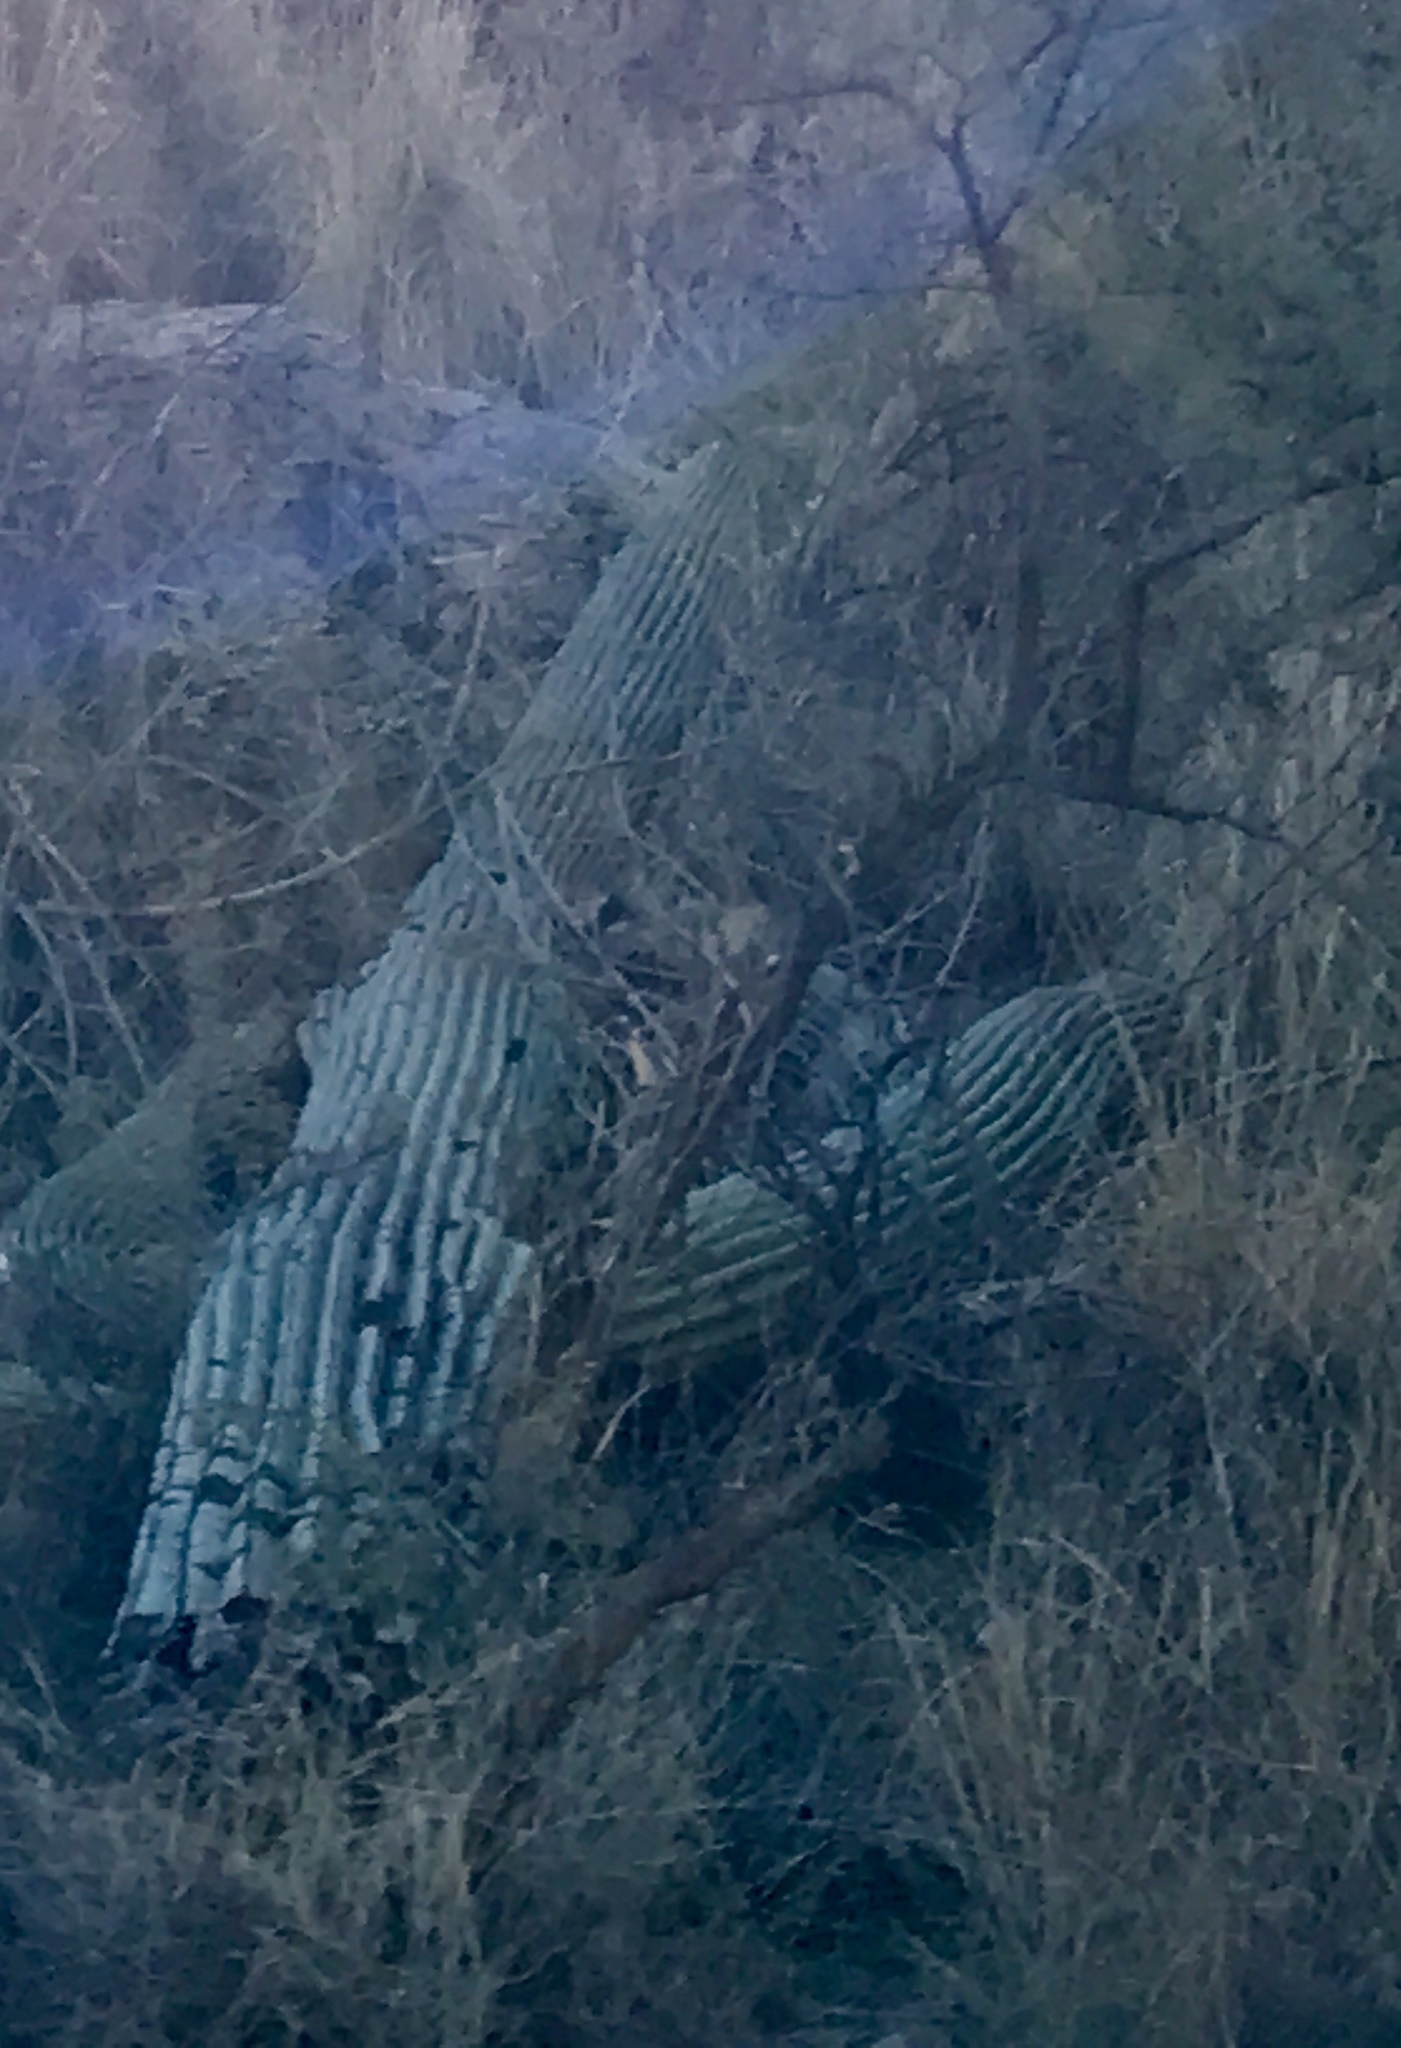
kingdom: Plantae
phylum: Tracheophyta
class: Magnoliopsida
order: Caryophyllales
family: Cactaceae
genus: Carnegiea
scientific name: Carnegiea gigantea
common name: Saguaro
